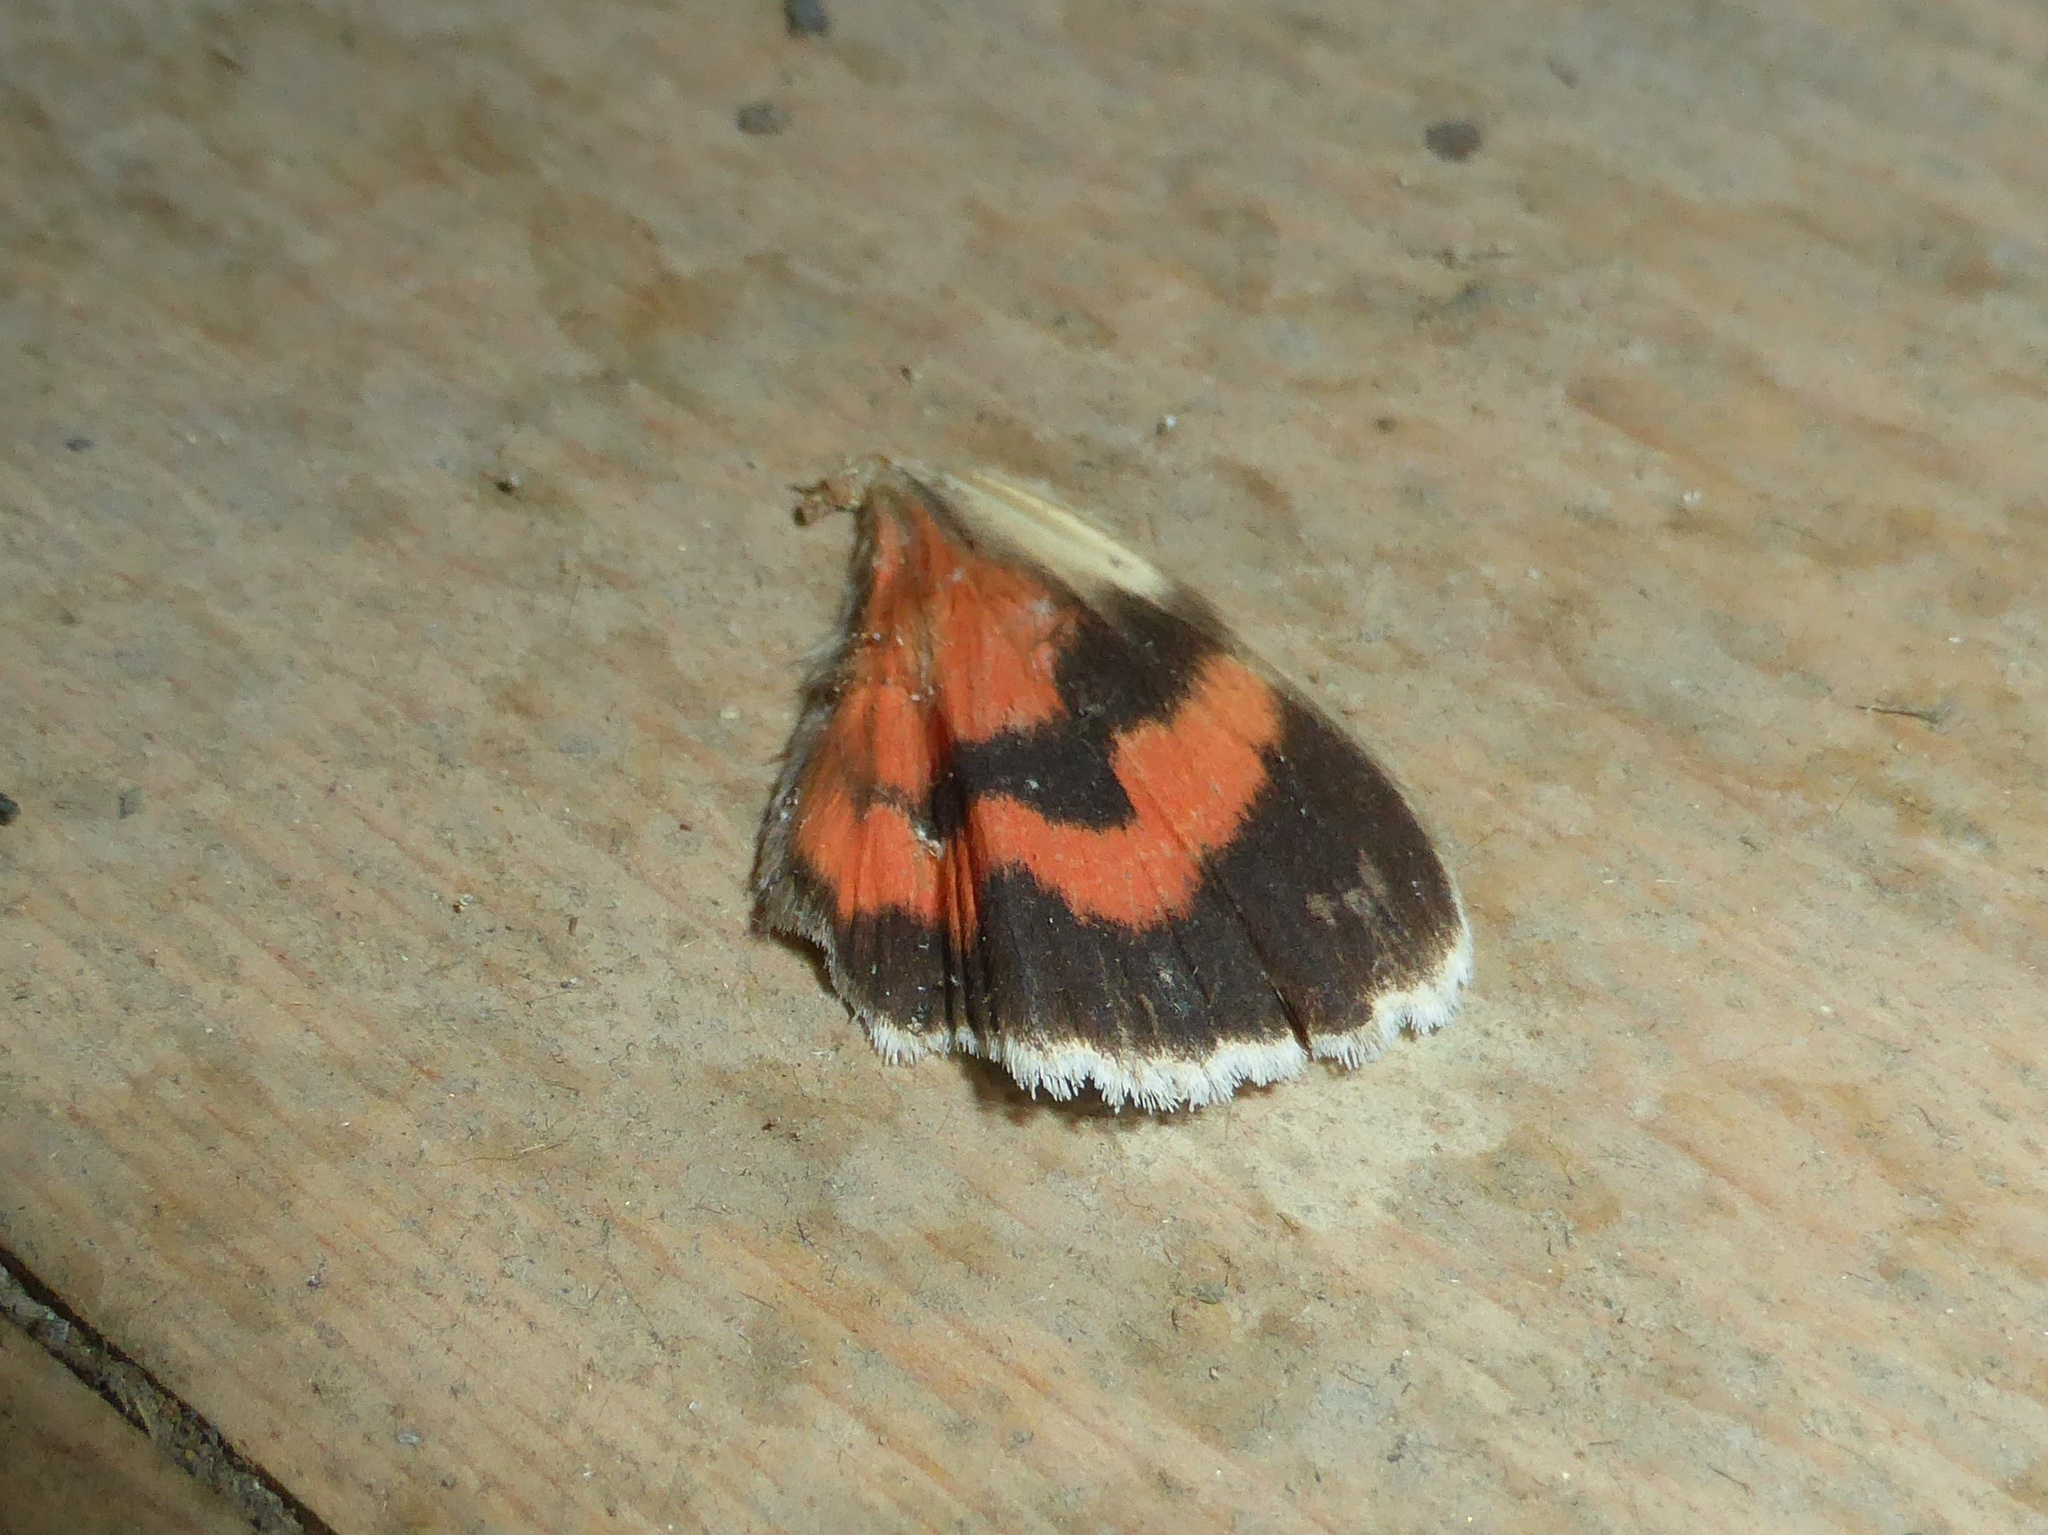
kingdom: Animalia
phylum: Arthropoda
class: Insecta
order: Lepidoptera
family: Erebidae
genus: Catocala
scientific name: Catocala nupta
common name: Red underwing
